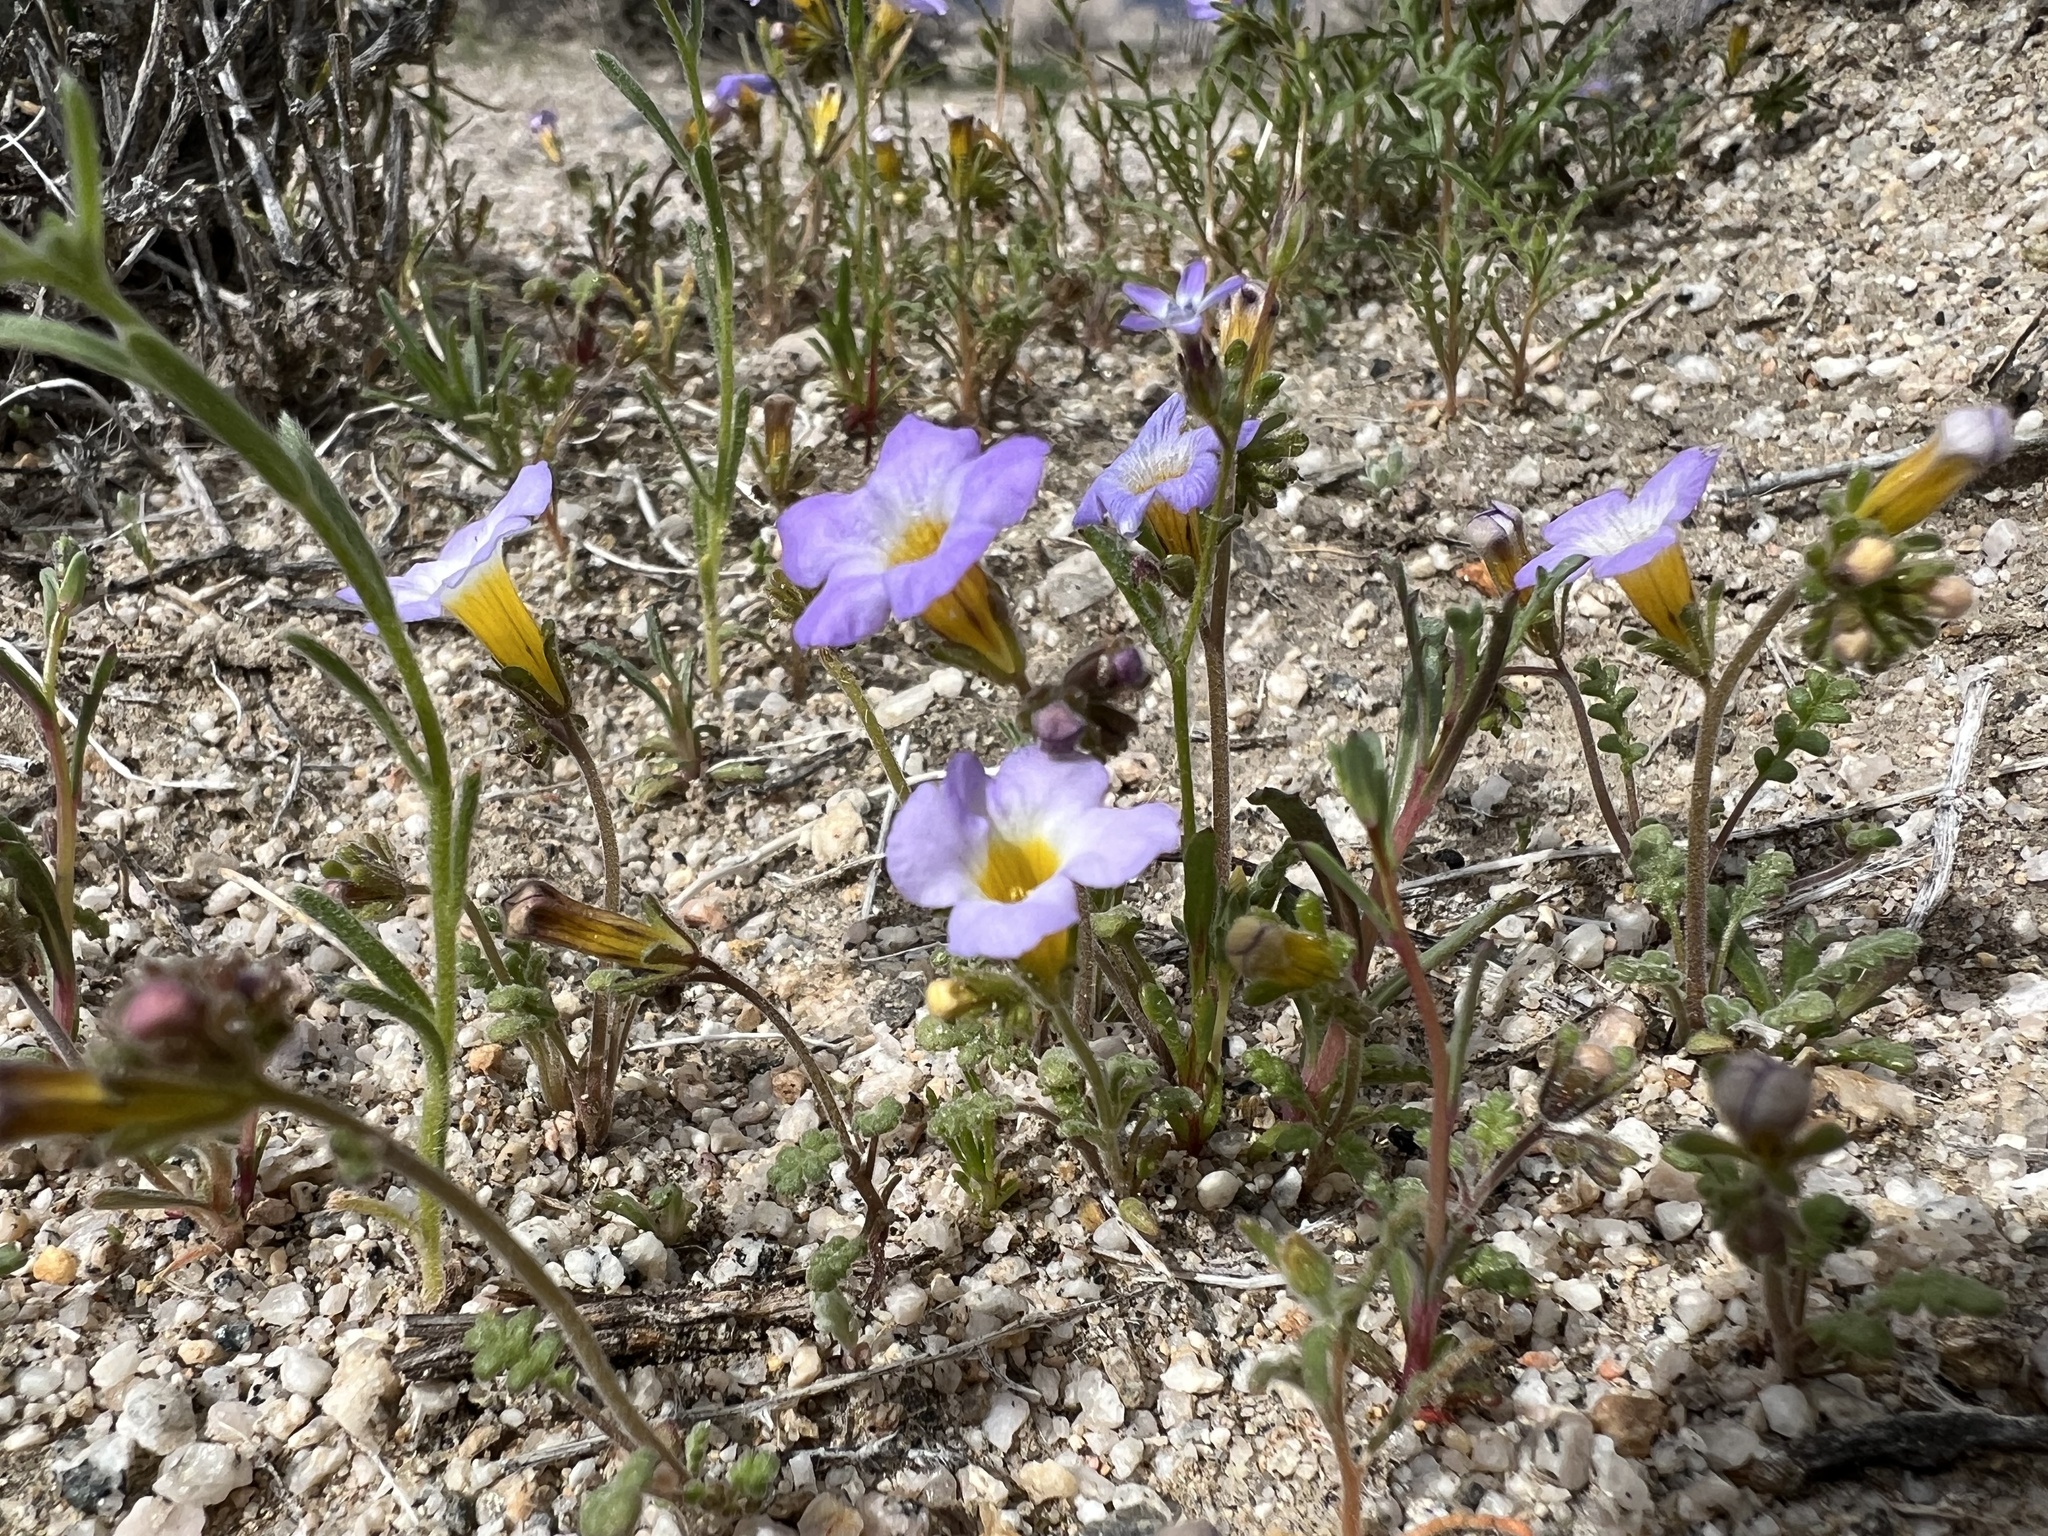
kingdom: Plantae
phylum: Tracheophyta
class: Magnoliopsida
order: Boraginales
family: Hydrophyllaceae
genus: Phacelia
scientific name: Phacelia fremontii
